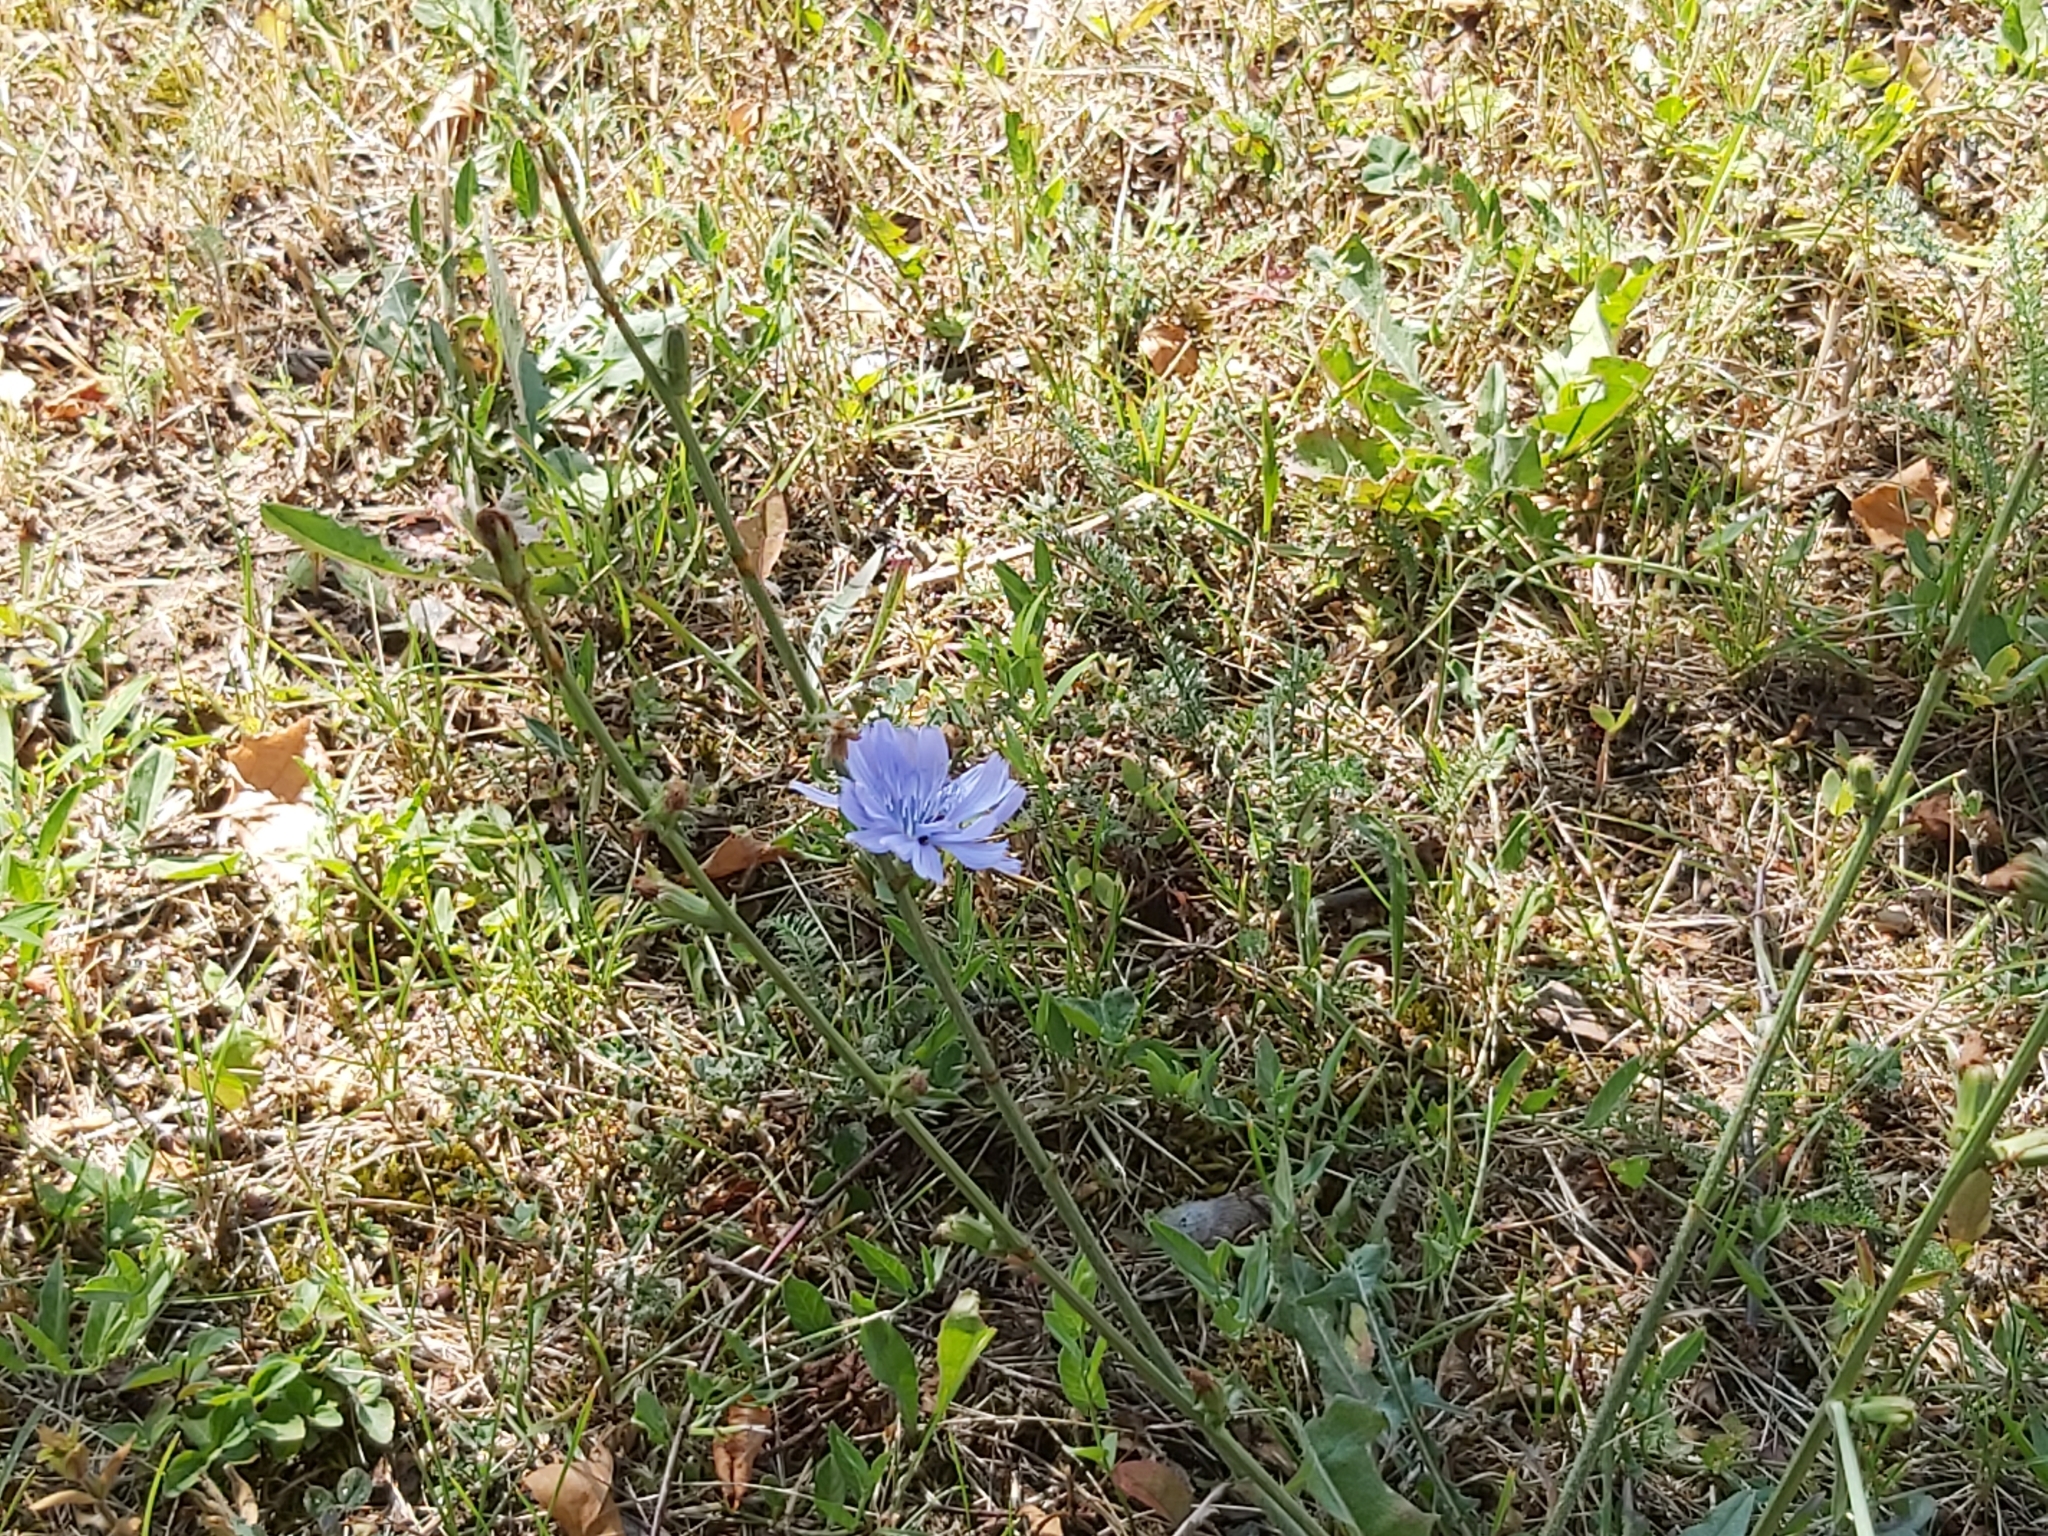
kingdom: Plantae
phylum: Tracheophyta
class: Magnoliopsida
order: Asterales
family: Asteraceae
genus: Cichorium
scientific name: Cichorium intybus
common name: Chicory
